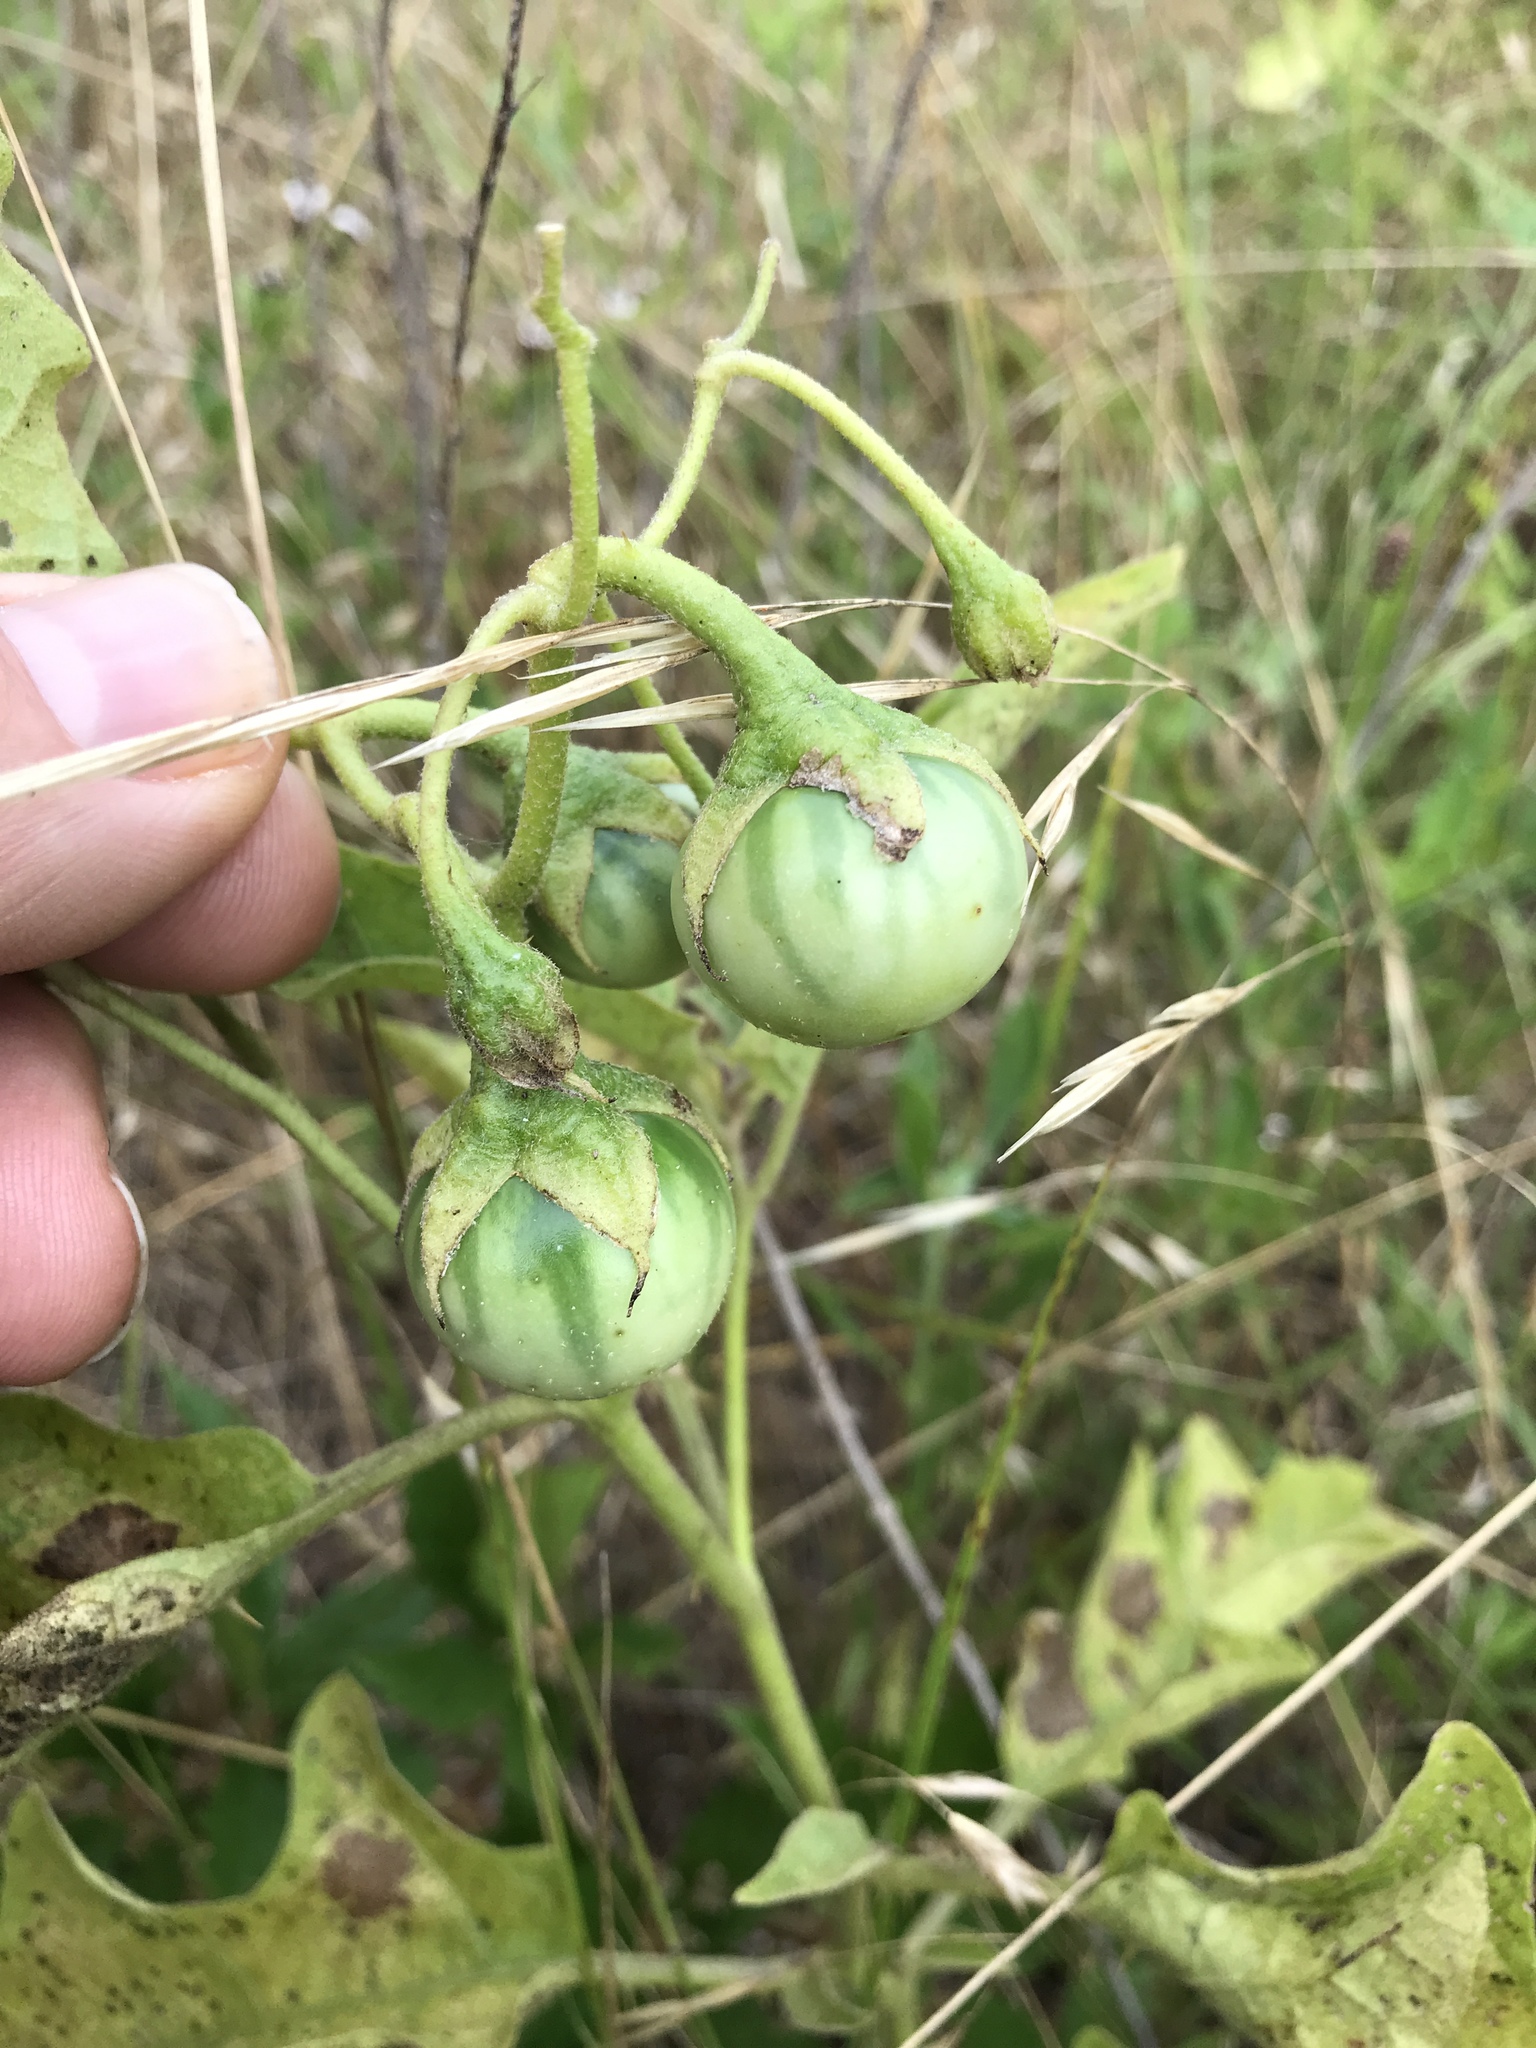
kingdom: Plantae
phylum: Tracheophyta
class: Magnoliopsida
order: Solanales
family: Solanaceae
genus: Solanum
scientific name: Solanum dimidiatum
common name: Carolina horse-nettle
